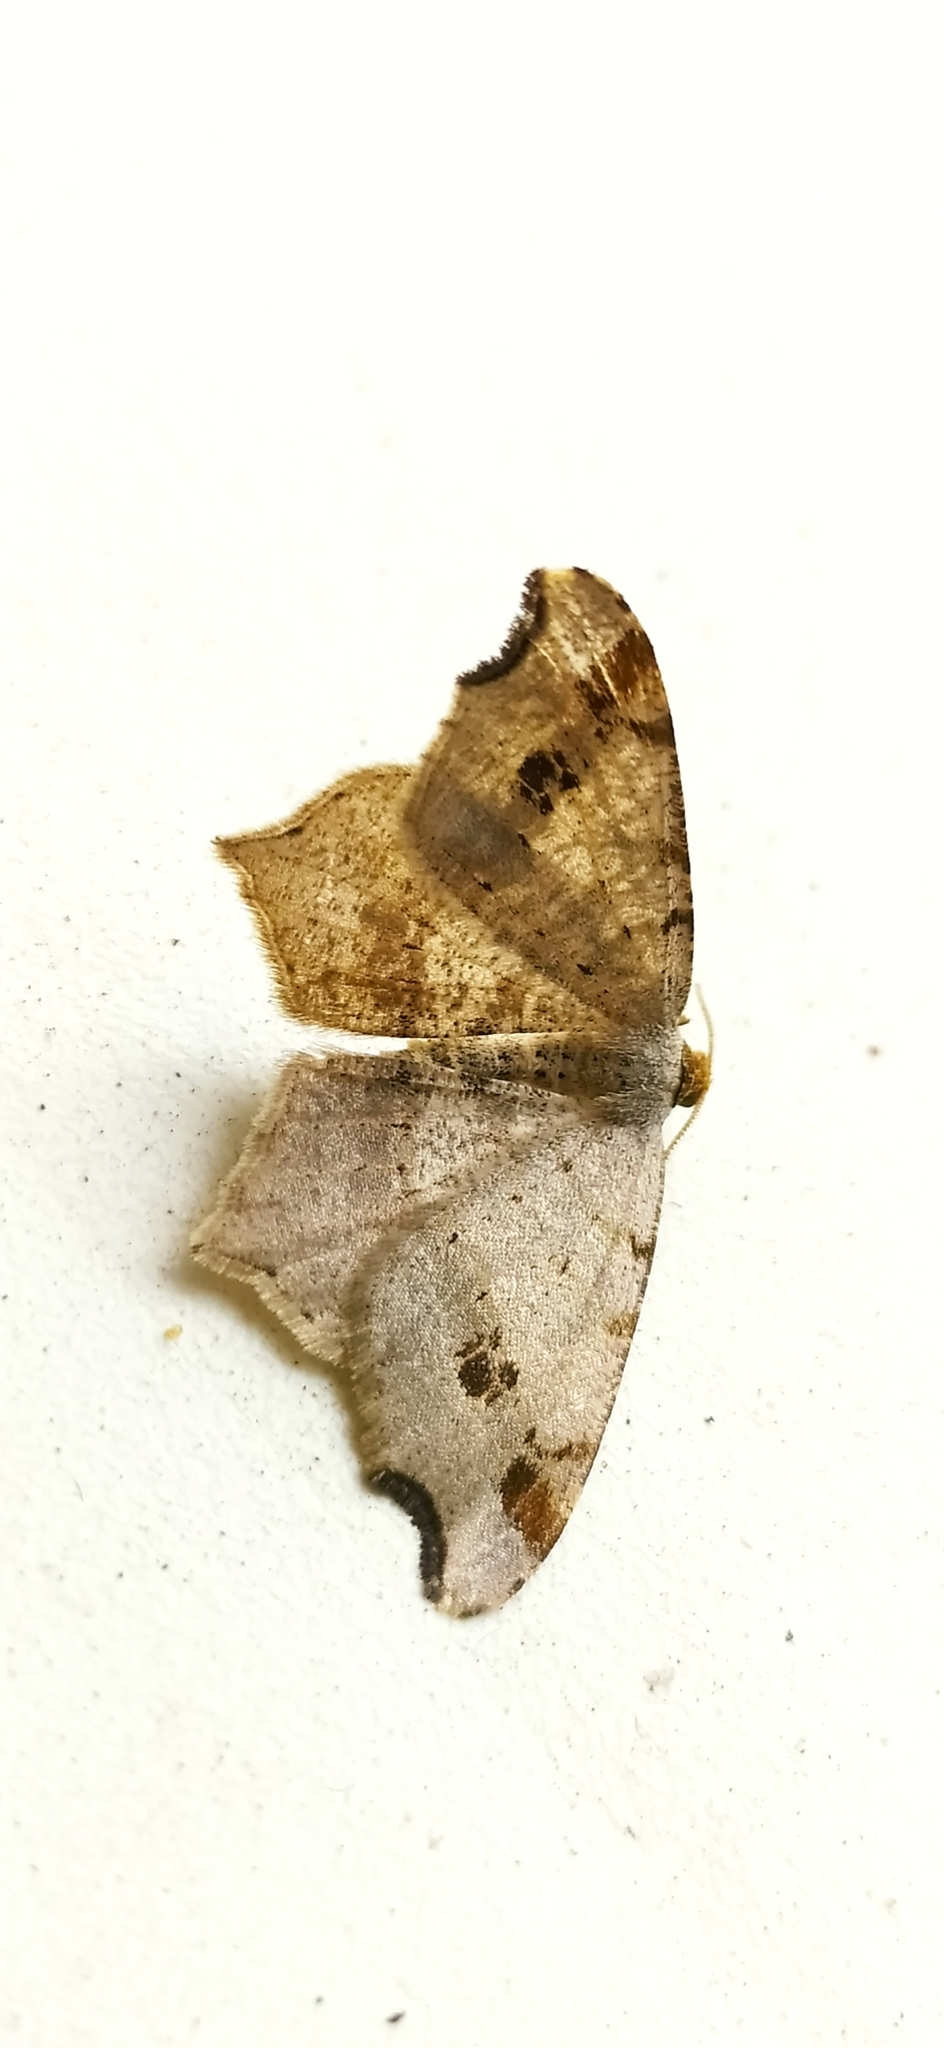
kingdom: Animalia
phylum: Arthropoda
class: Insecta
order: Lepidoptera
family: Geometridae
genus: Macaria
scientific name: Macaria alternata
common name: Sharp-angled peacock
